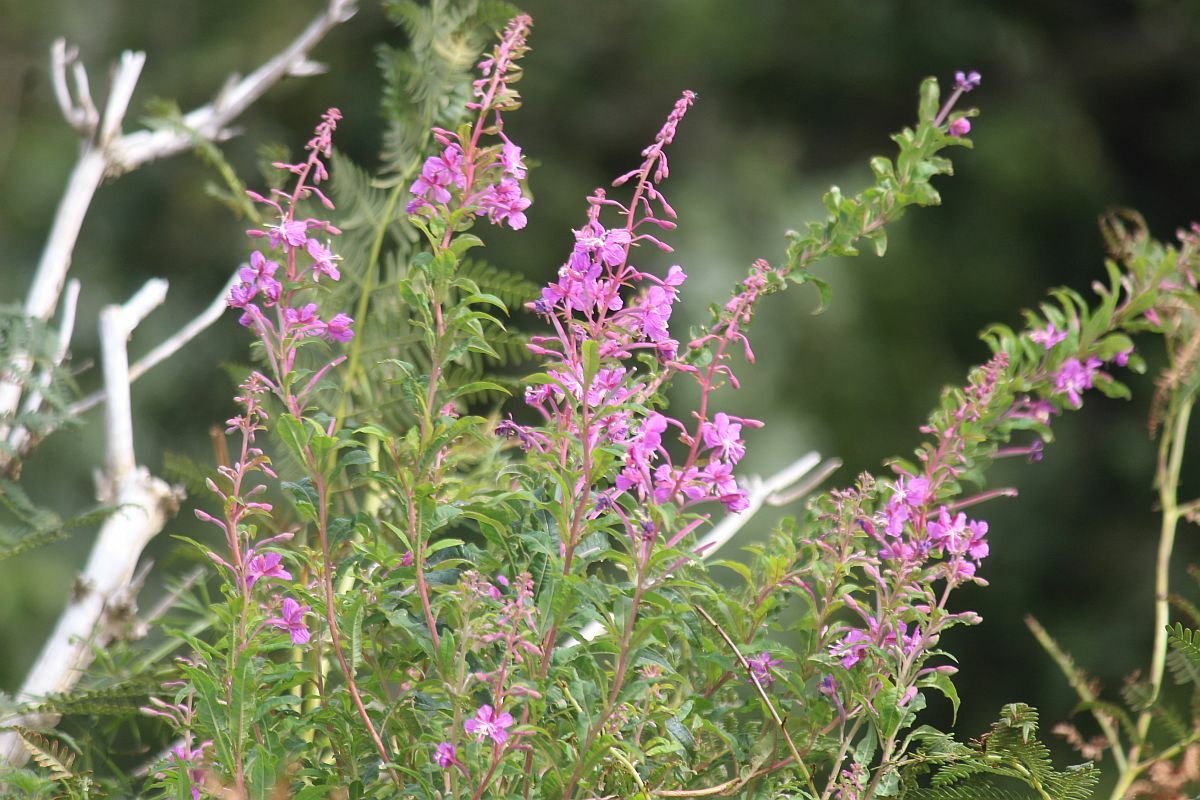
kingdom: Plantae
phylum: Tracheophyta
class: Magnoliopsida
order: Myrtales
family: Onagraceae
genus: Chamaenerion
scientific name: Chamaenerion angustifolium
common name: Fireweed
